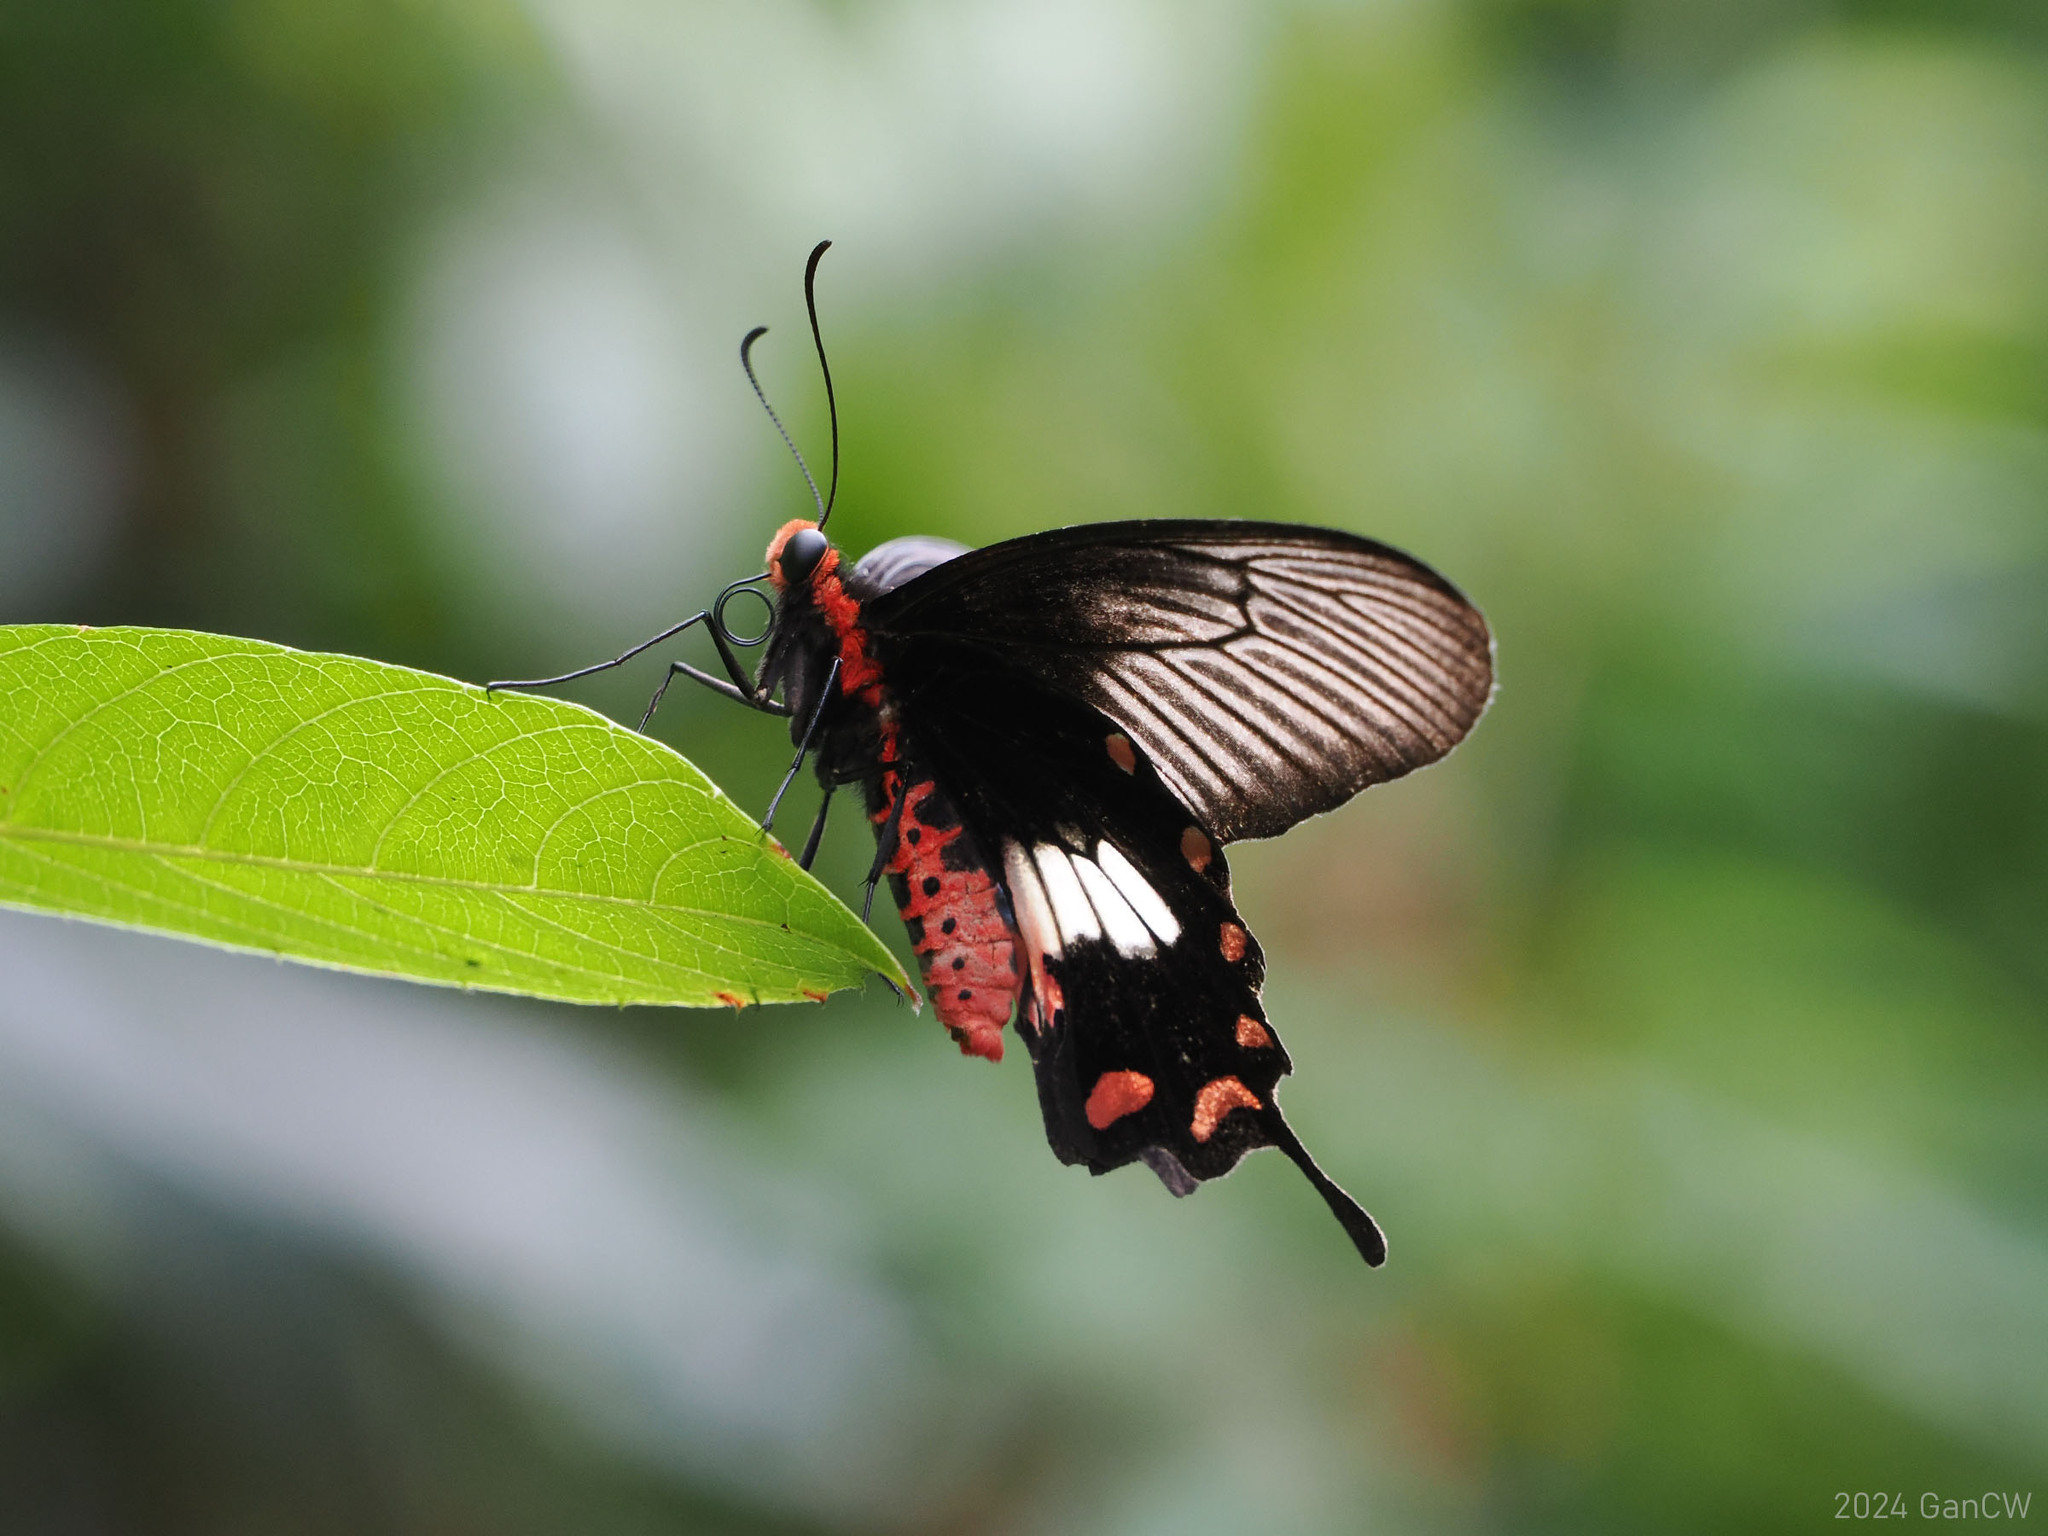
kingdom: Animalia
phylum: Arthropoda
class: Insecta
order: Lepidoptera
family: Papilionidae
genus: Pachliopta
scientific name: Pachliopta aristolochiae
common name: Common rose
